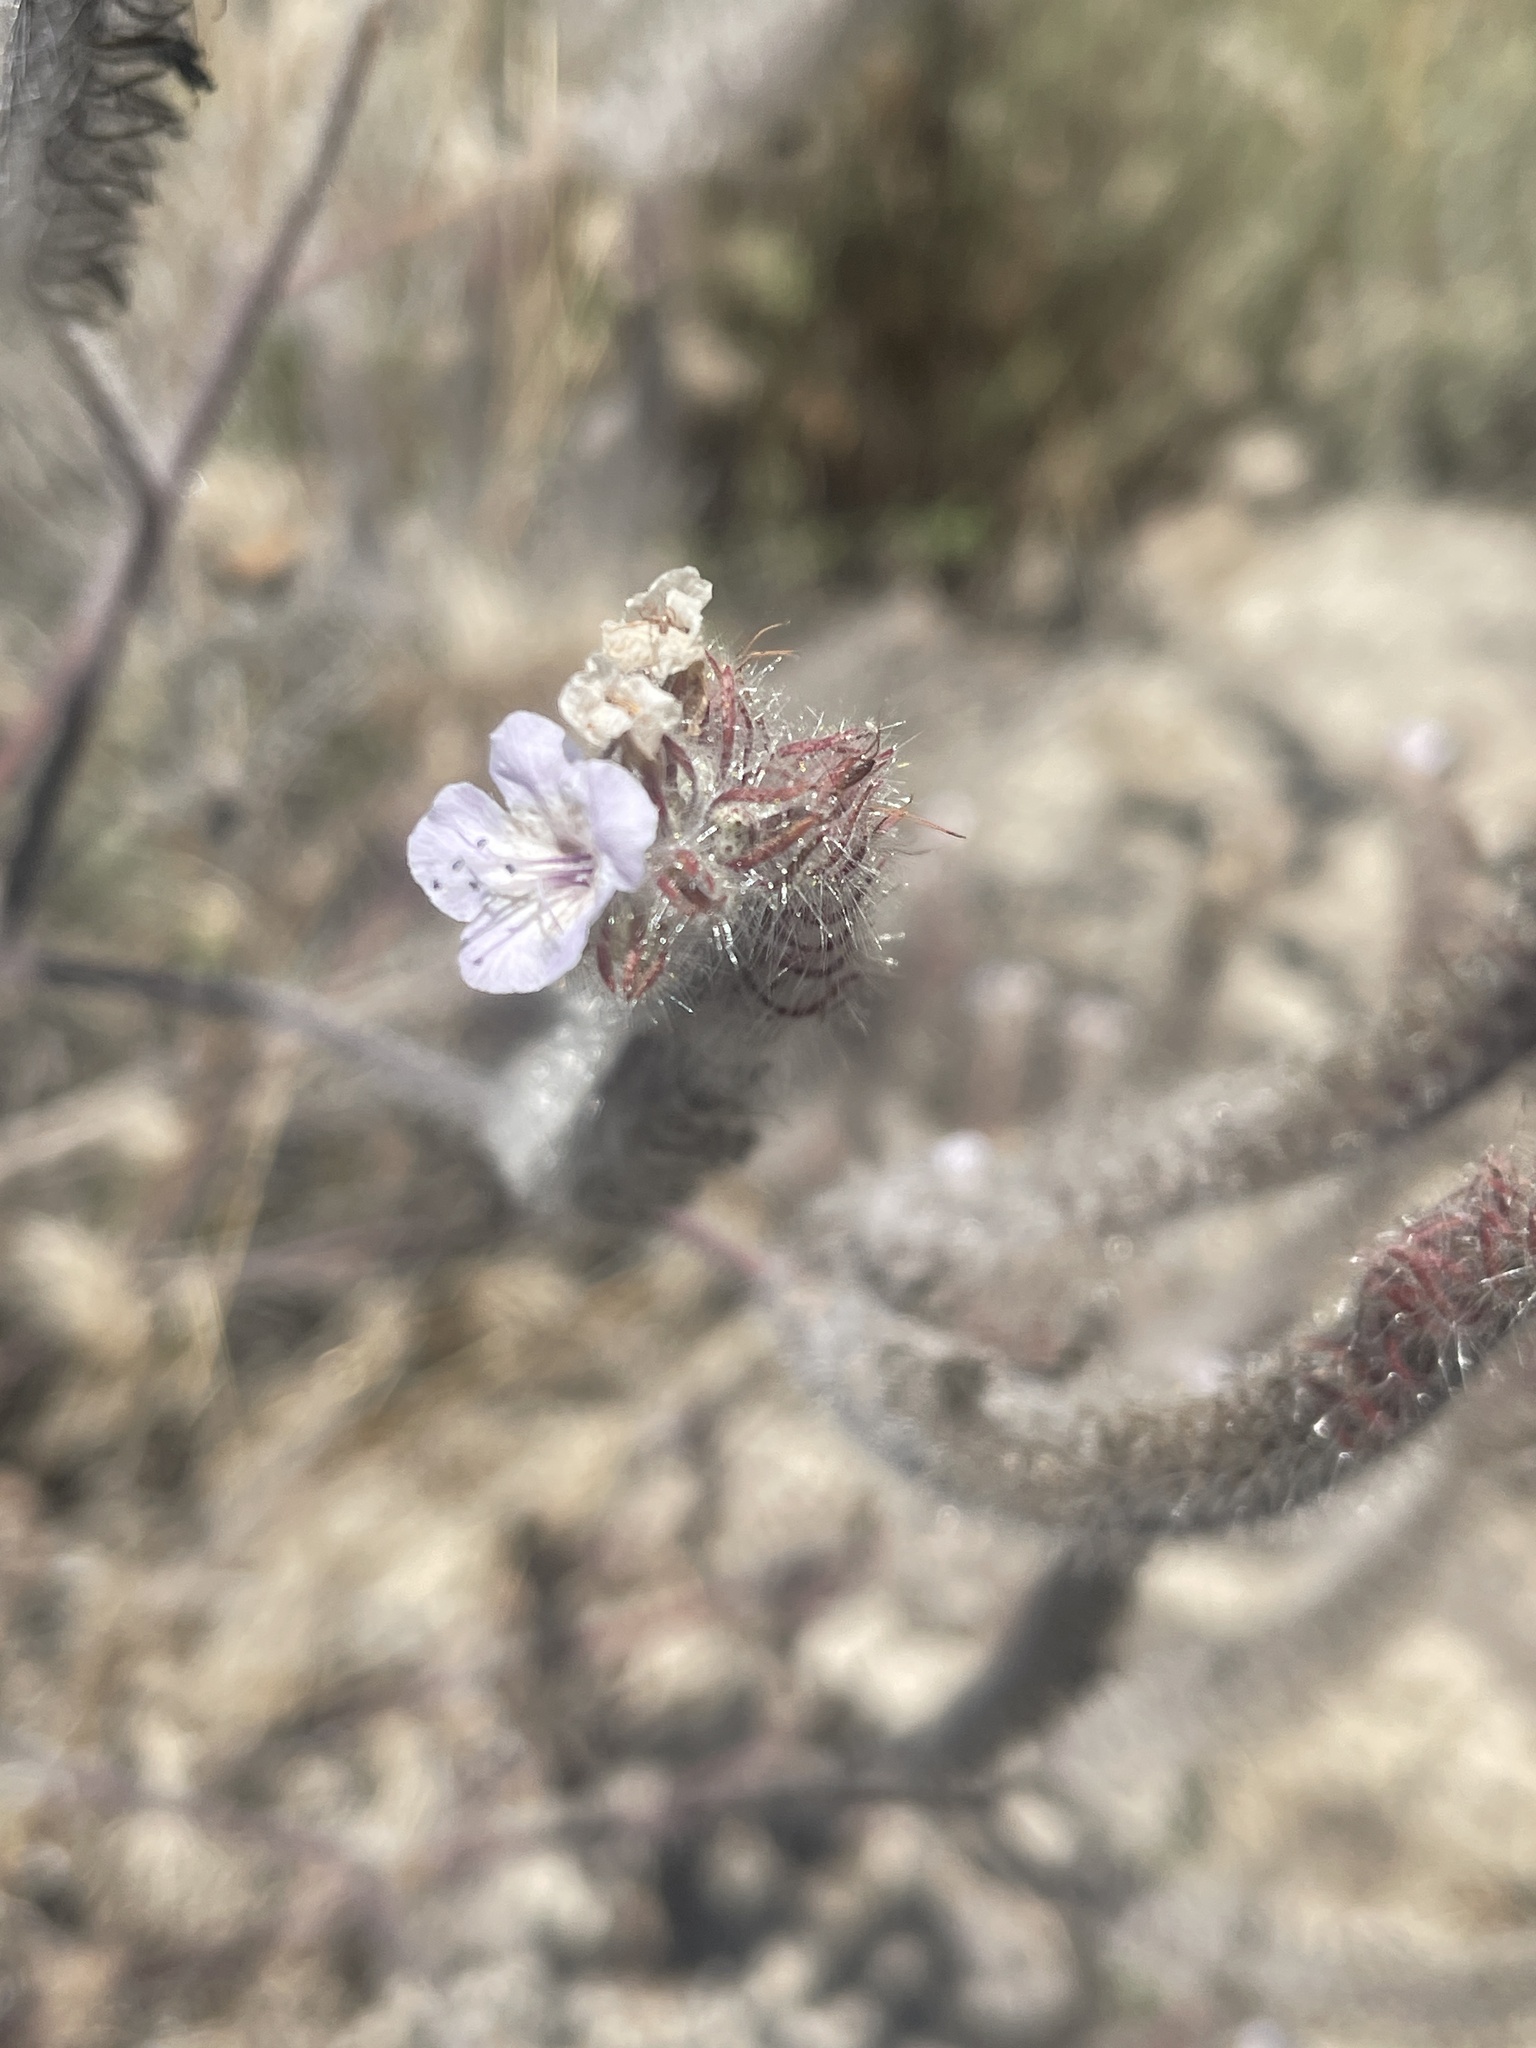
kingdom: Plantae
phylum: Tracheophyta
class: Magnoliopsida
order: Boraginales
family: Hydrophyllaceae
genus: Phacelia
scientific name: Phacelia cicutaria
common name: Caterpillar phacelia
